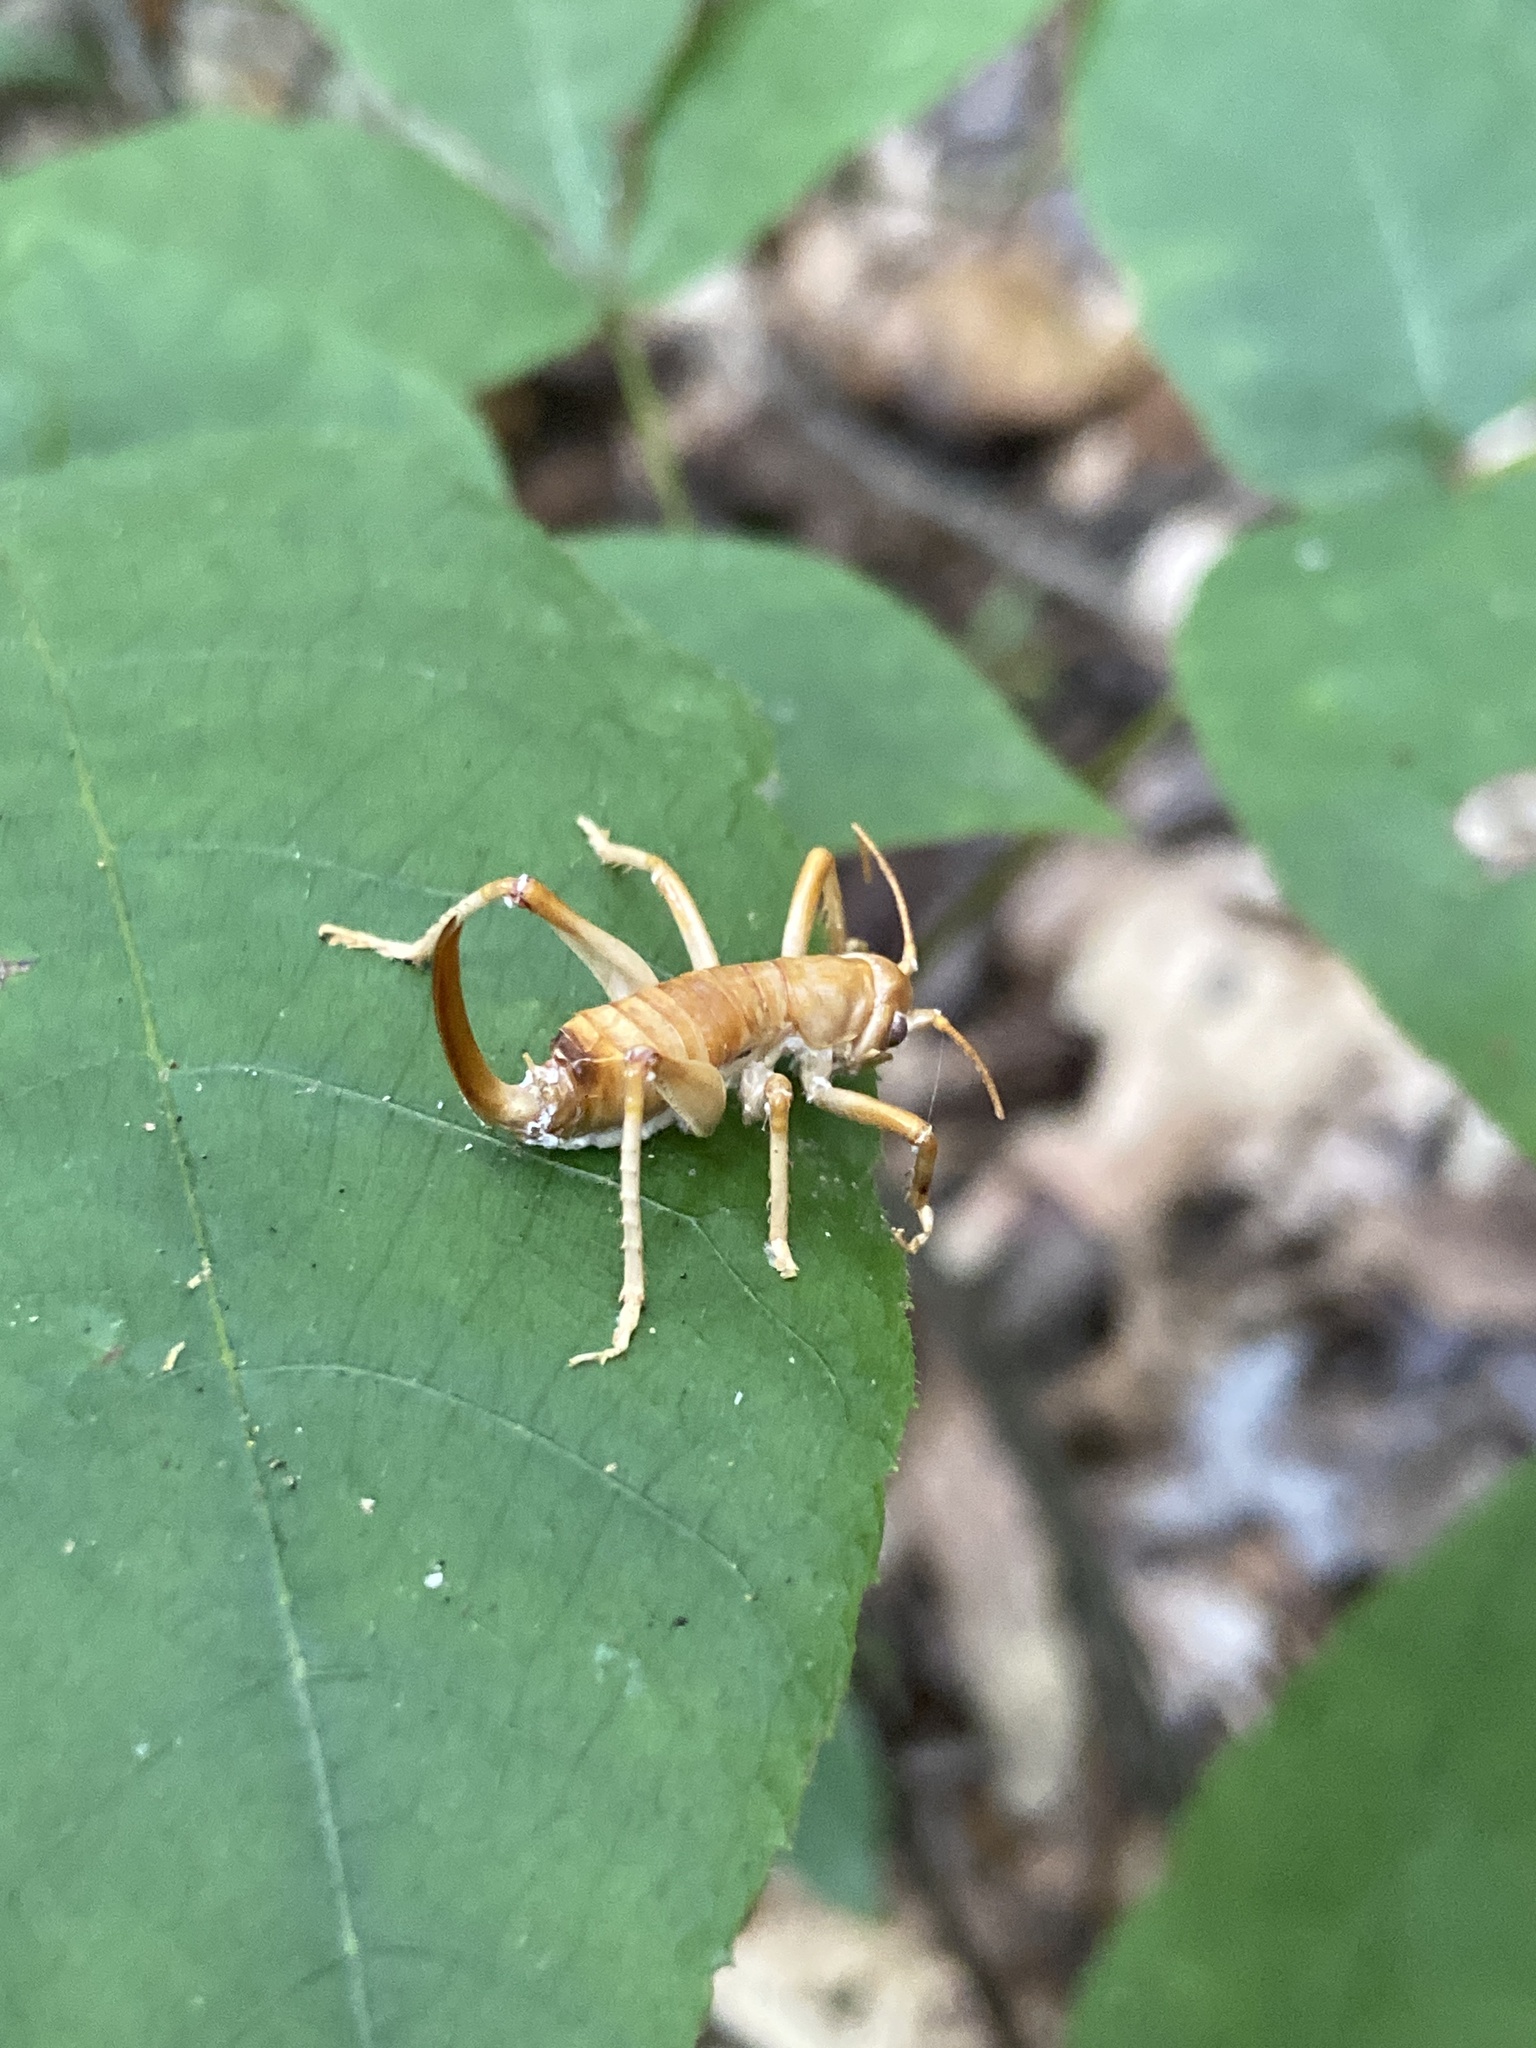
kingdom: Animalia
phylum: Arthropoda
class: Insecta
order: Orthoptera
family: Gryllacrididae
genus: Camptonotus
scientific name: Camptonotus carolinensis
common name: Carolina leaf-roller
